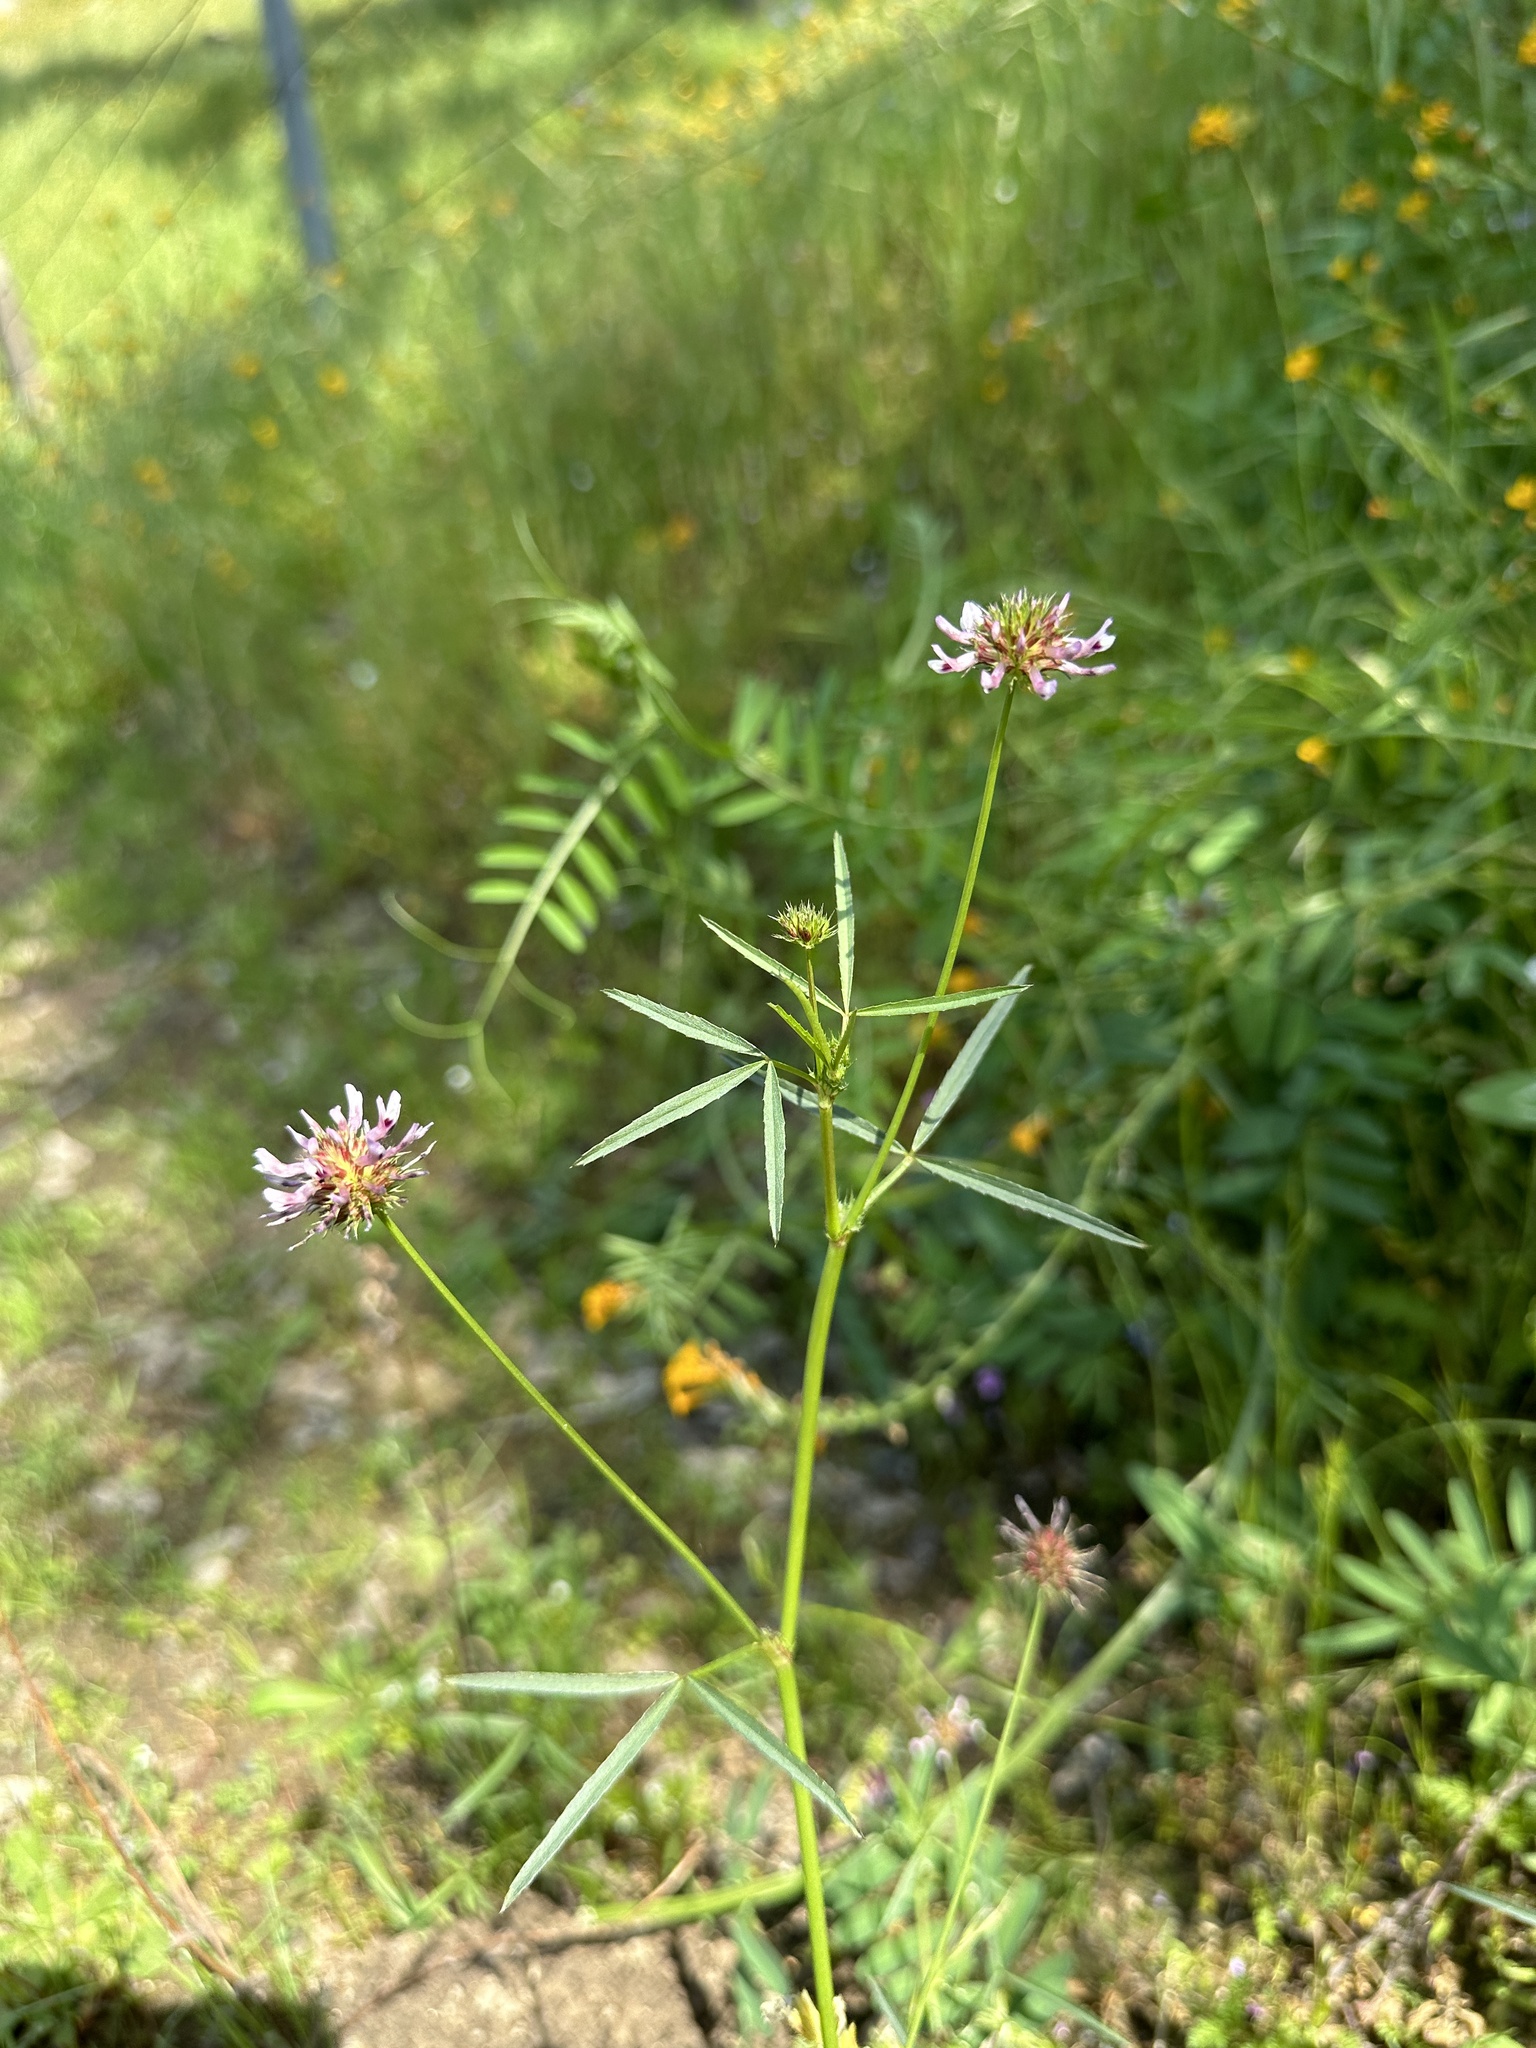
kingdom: Plantae
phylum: Tracheophyta
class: Magnoliopsida
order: Fabales
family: Fabaceae
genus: Trifolium
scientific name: Trifolium willdenovii
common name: Tomcat clover
